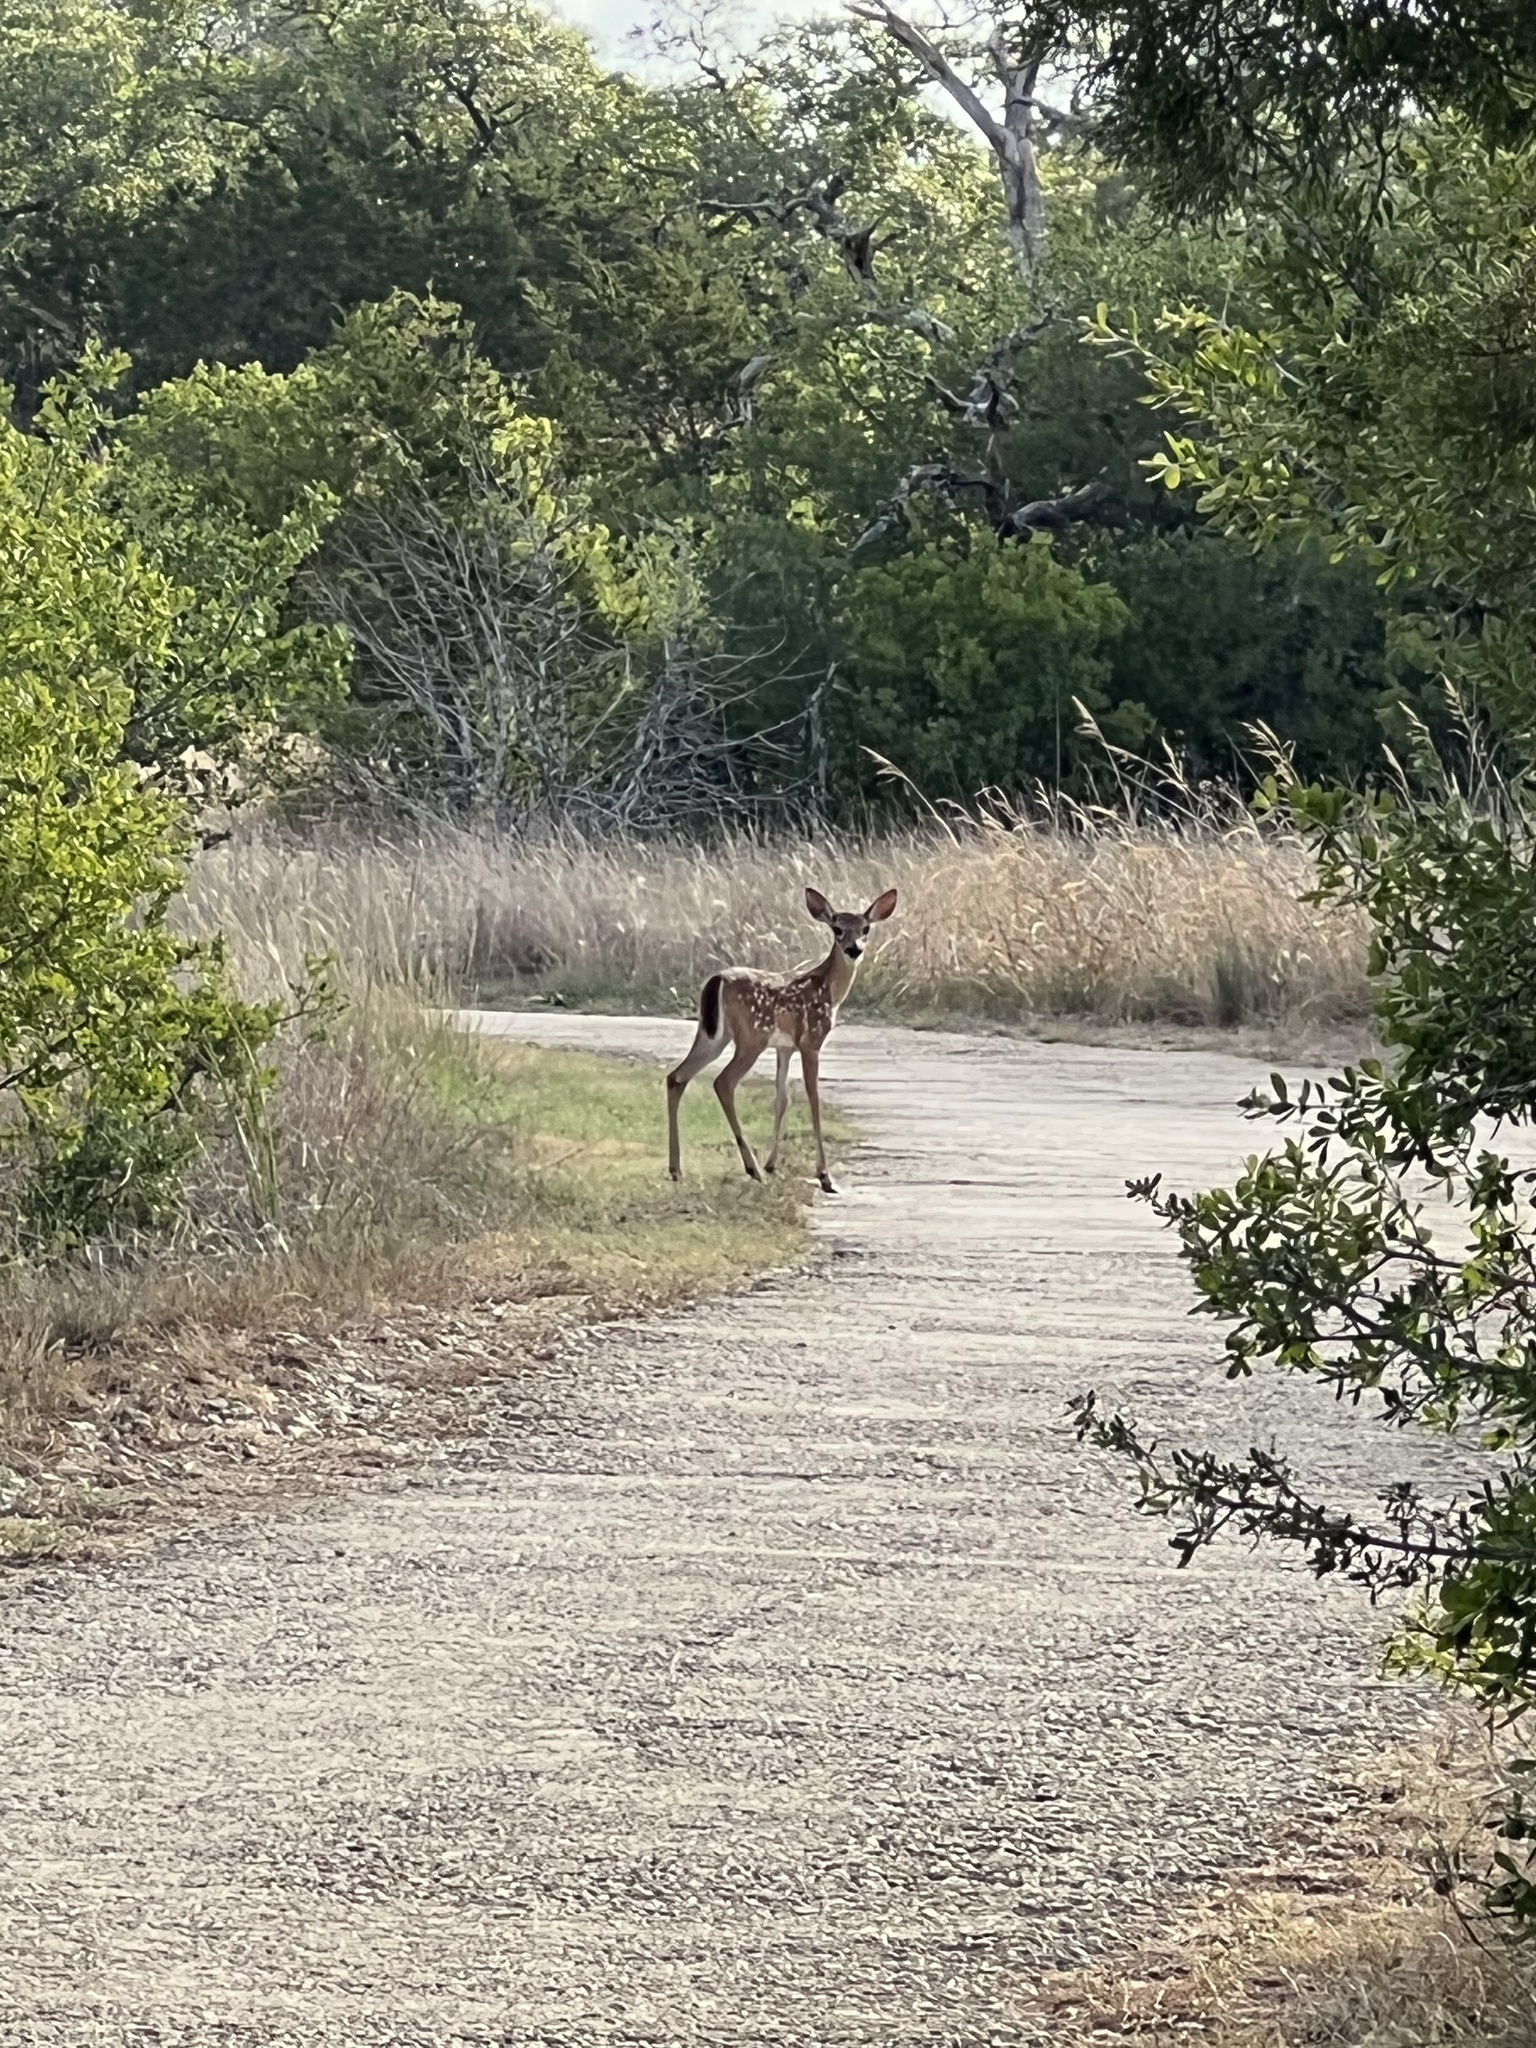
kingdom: Animalia
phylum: Chordata
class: Mammalia
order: Artiodactyla
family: Cervidae
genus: Odocoileus
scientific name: Odocoileus virginianus
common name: White-tailed deer
